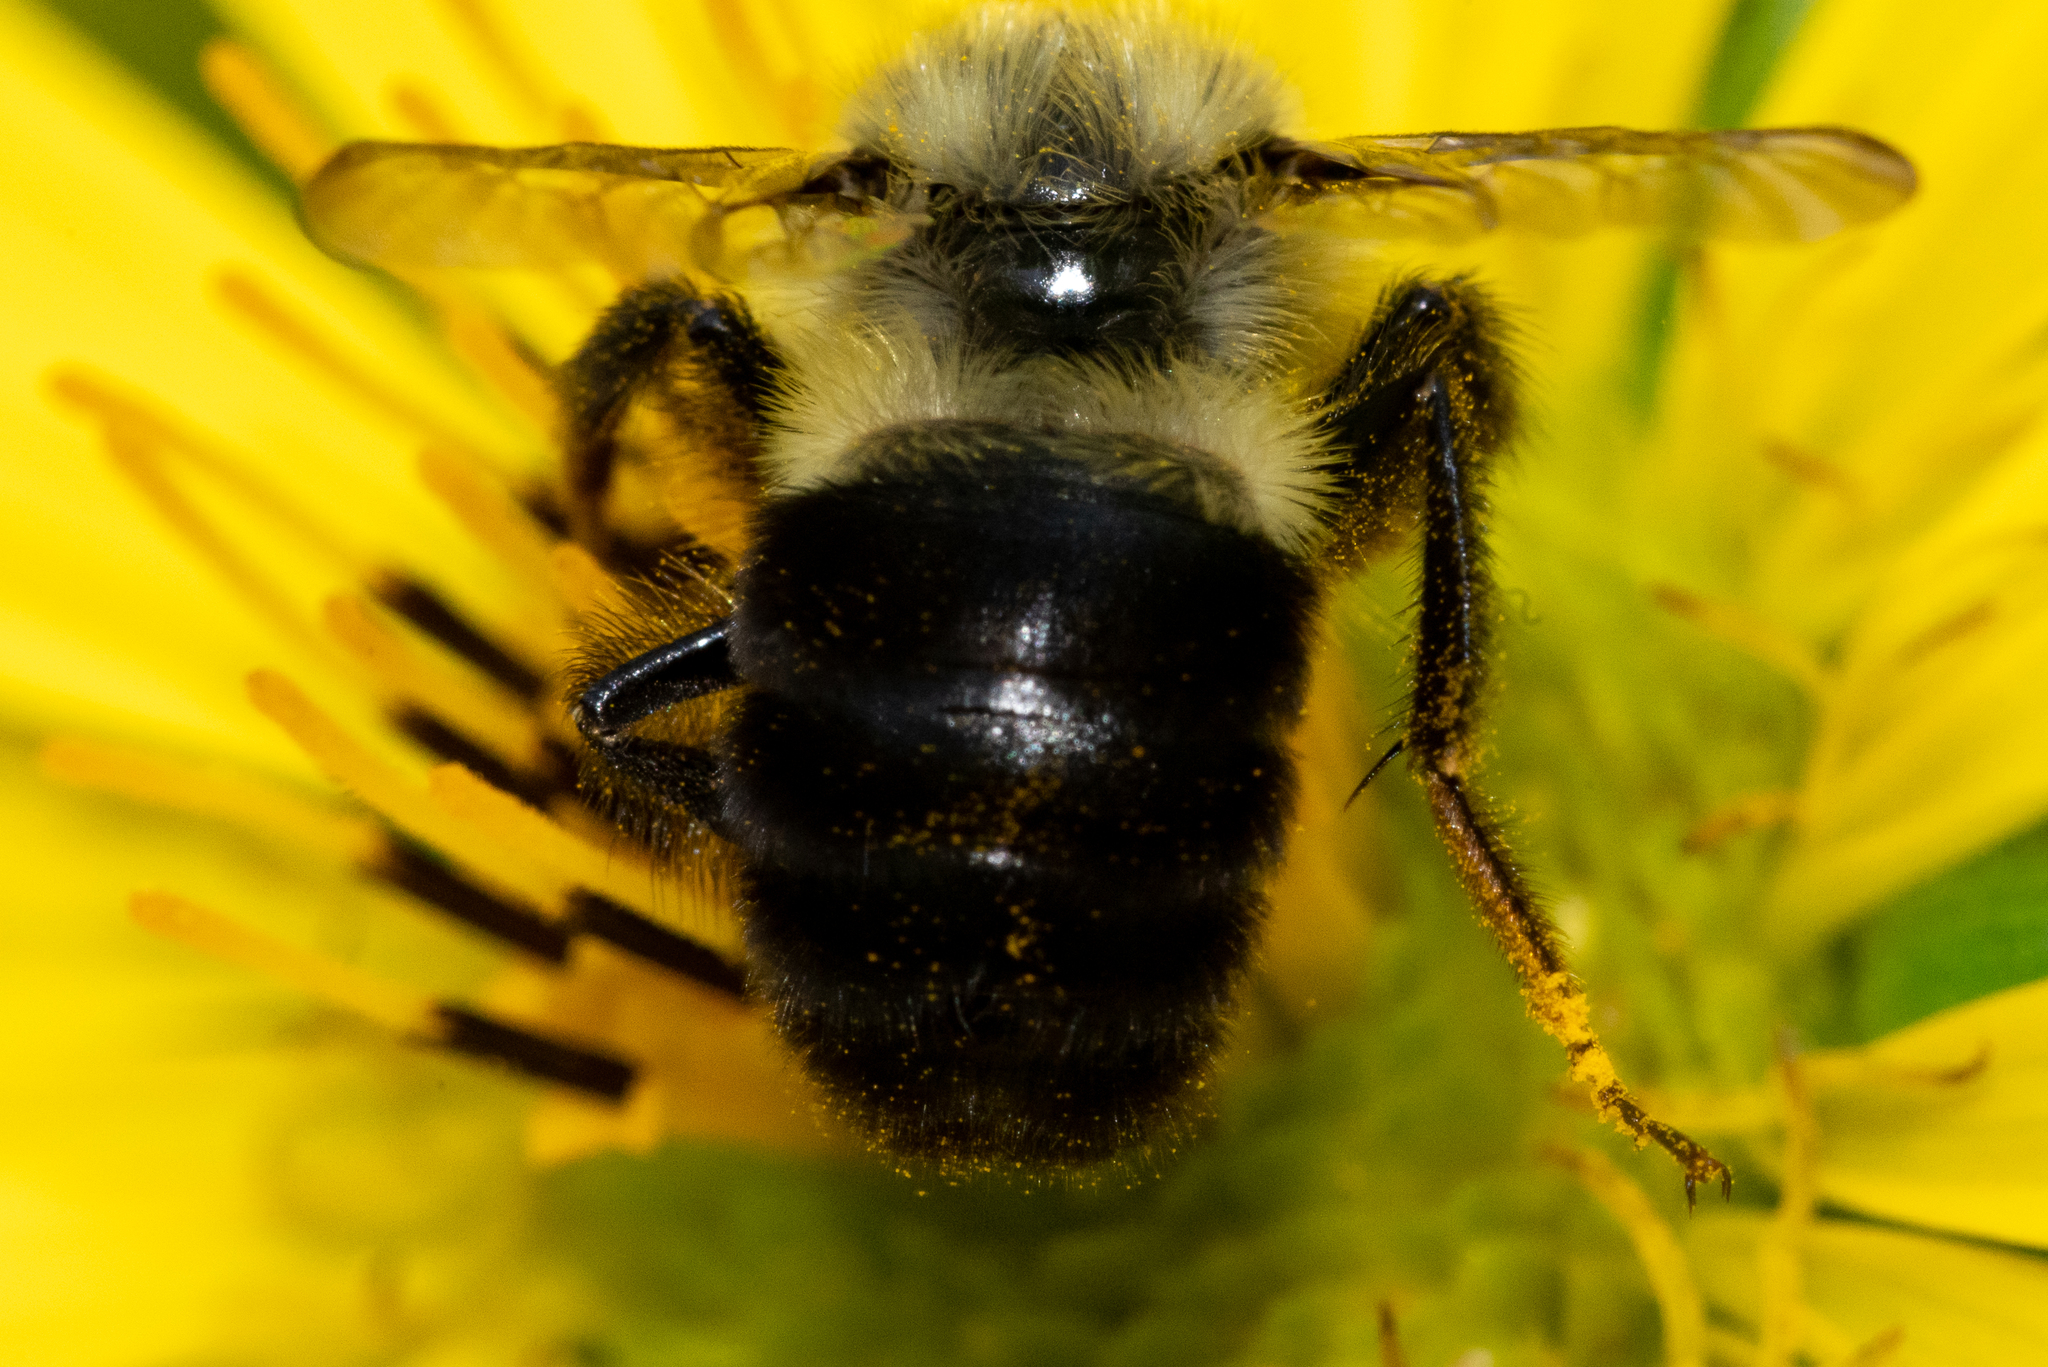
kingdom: Animalia
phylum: Arthropoda
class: Insecta
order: Hymenoptera
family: Apidae
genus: Bombus
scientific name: Bombus impatiens
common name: Common eastern bumble bee
